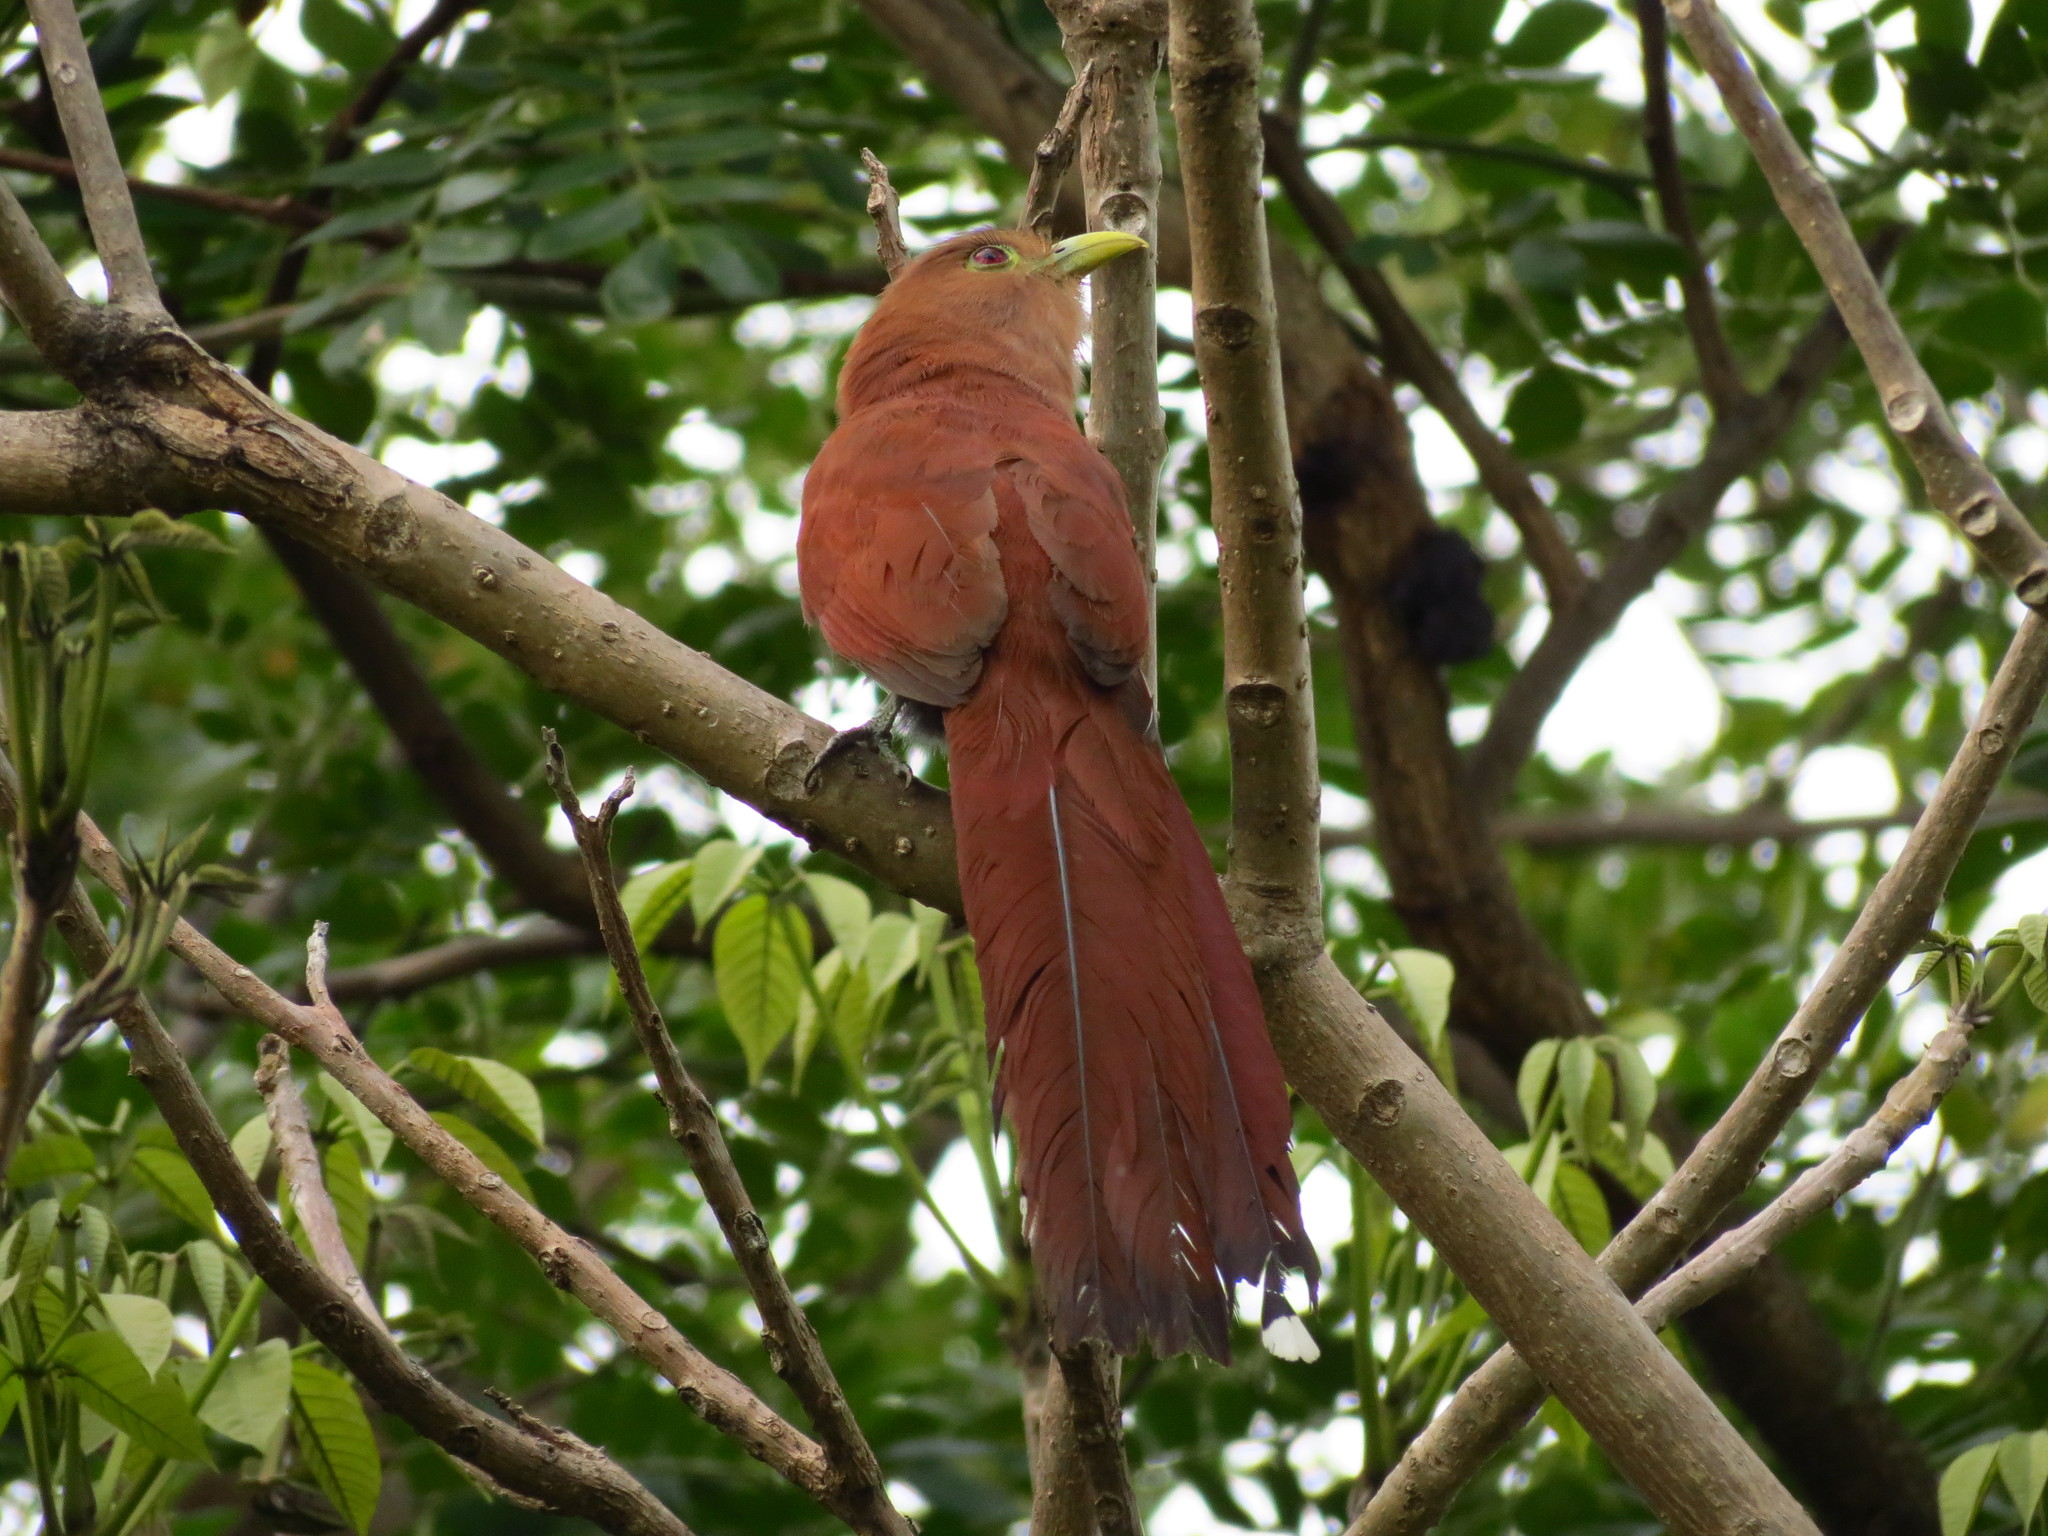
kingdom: Animalia
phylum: Chordata
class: Aves
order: Cuculiformes
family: Cuculidae
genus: Piaya
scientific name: Piaya cayana
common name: Squirrel cuckoo
